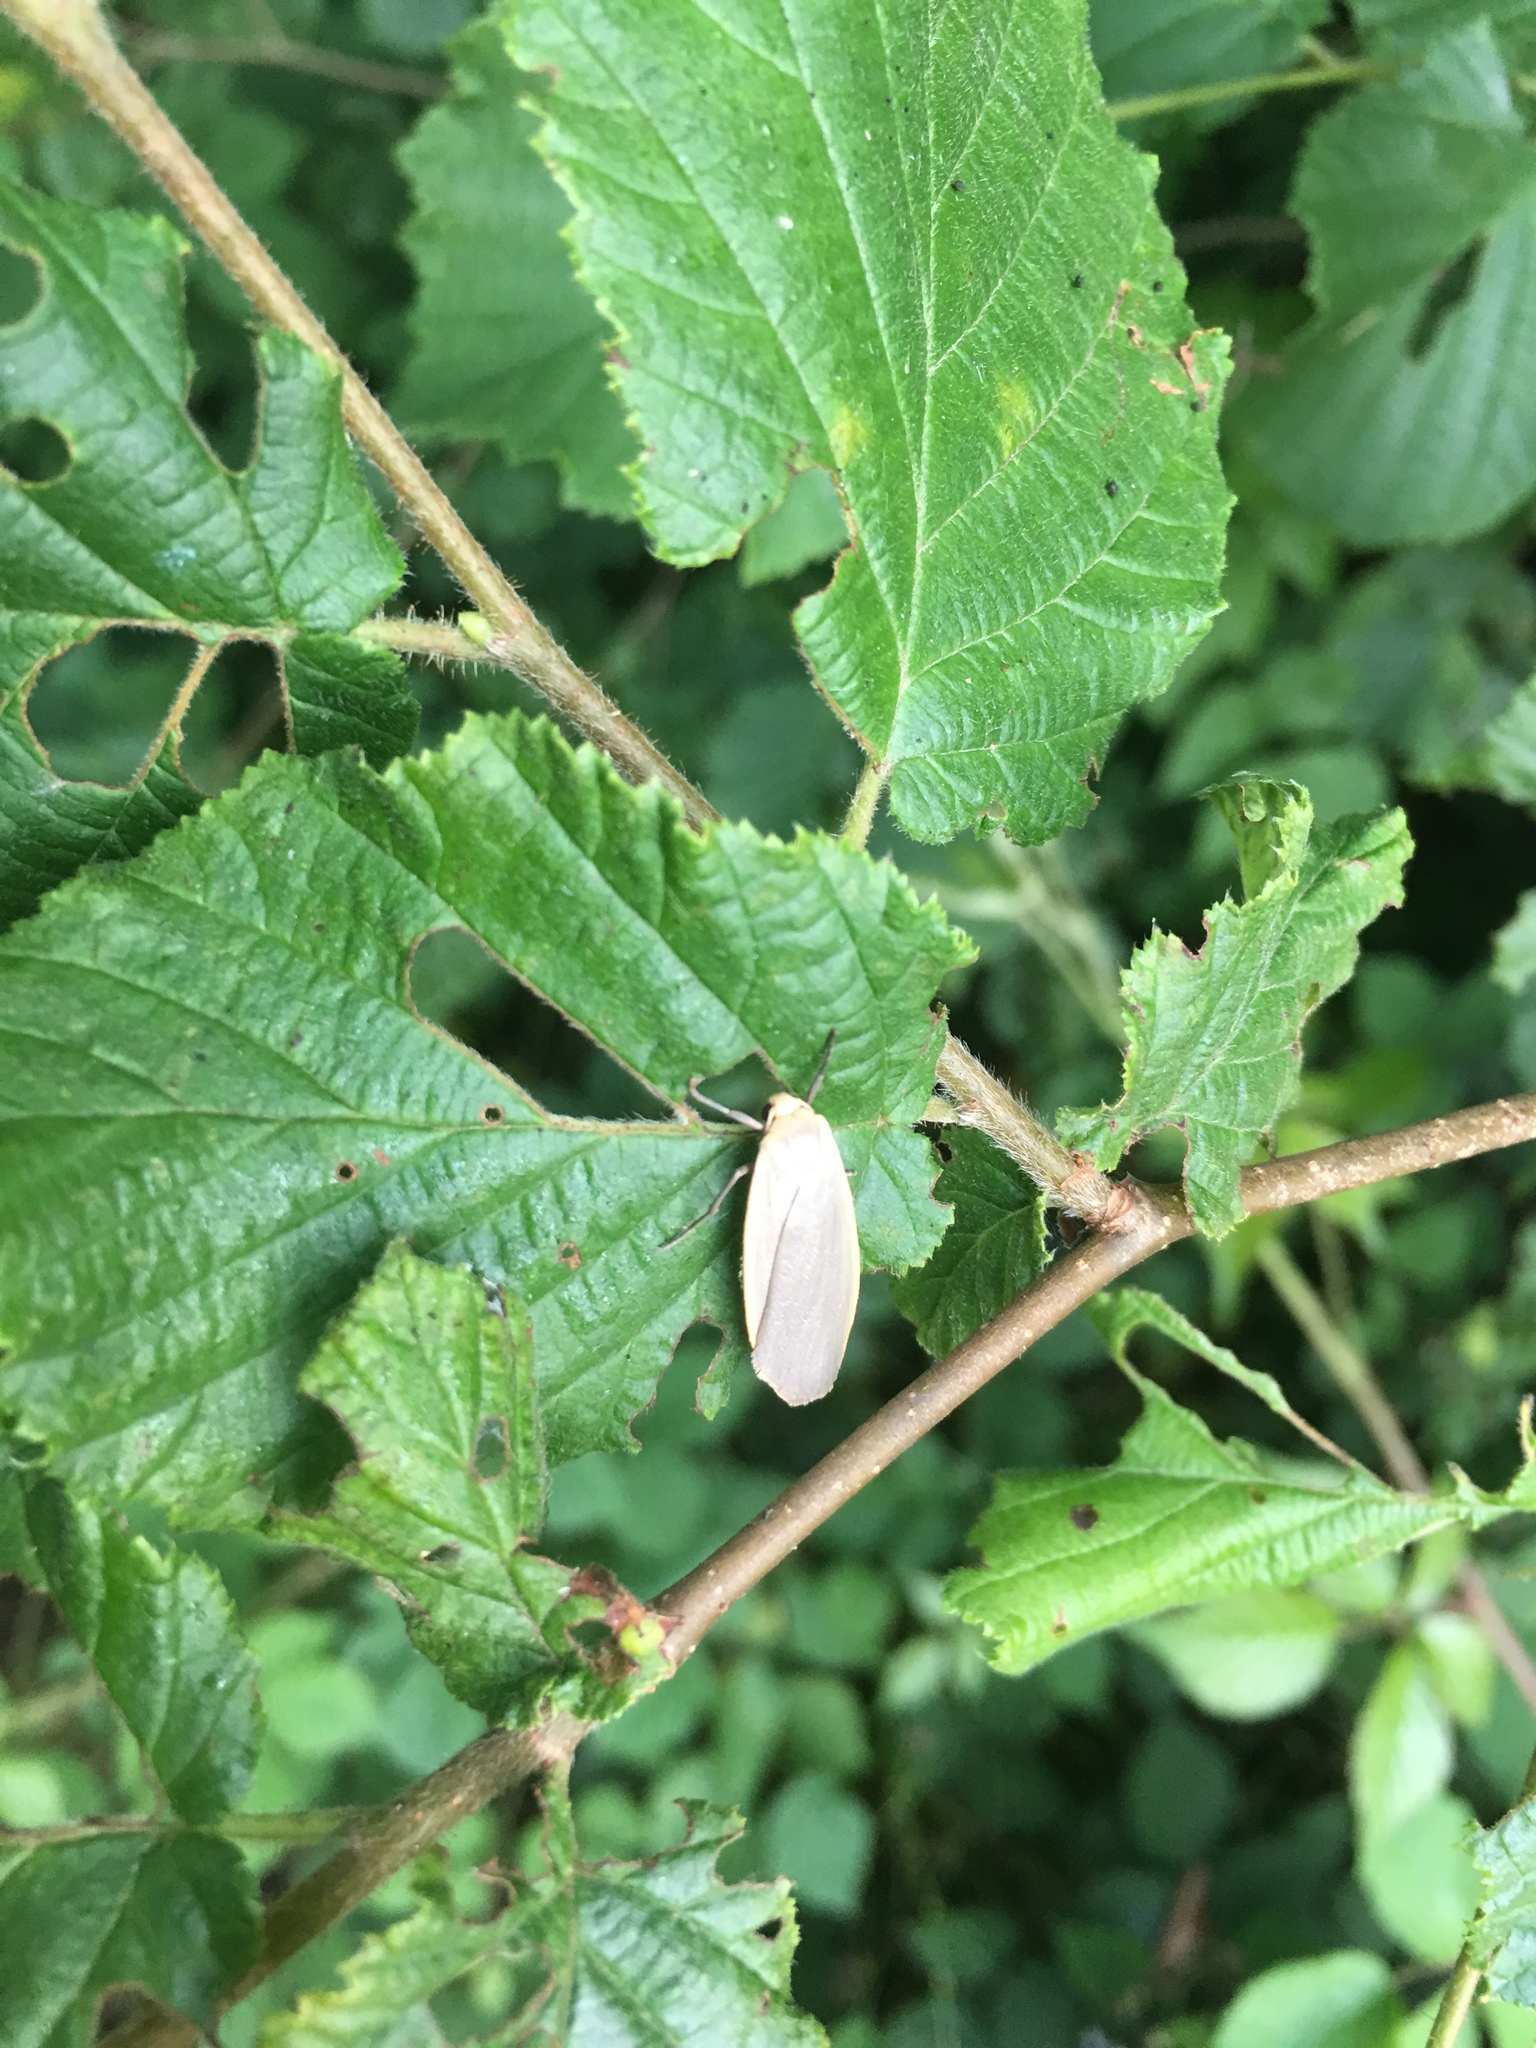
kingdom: Animalia
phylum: Arthropoda
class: Insecta
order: Lepidoptera
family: Erebidae
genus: Collita
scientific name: Collita griseola
